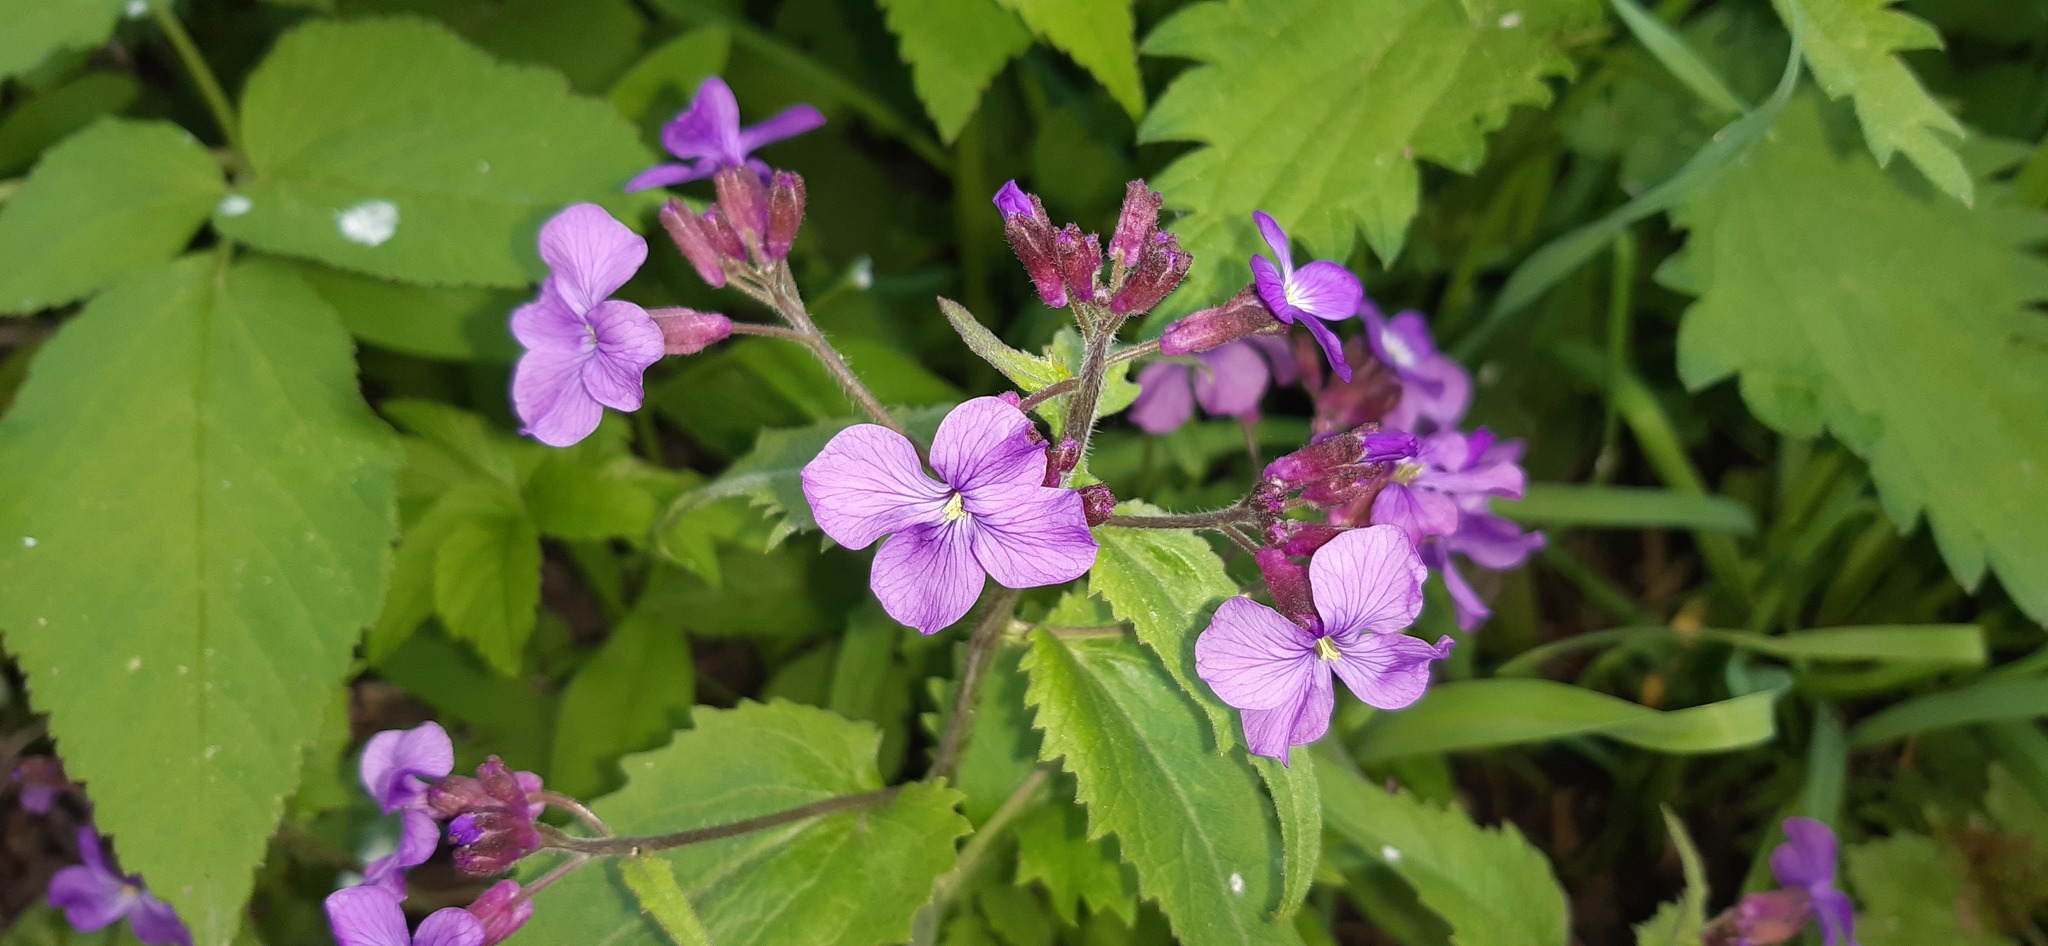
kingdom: Plantae
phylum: Tracheophyta
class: Magnoliopsida
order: Brassicales
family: Brassicaceae
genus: Lunaria
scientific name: Lunaria annua
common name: Honesty
